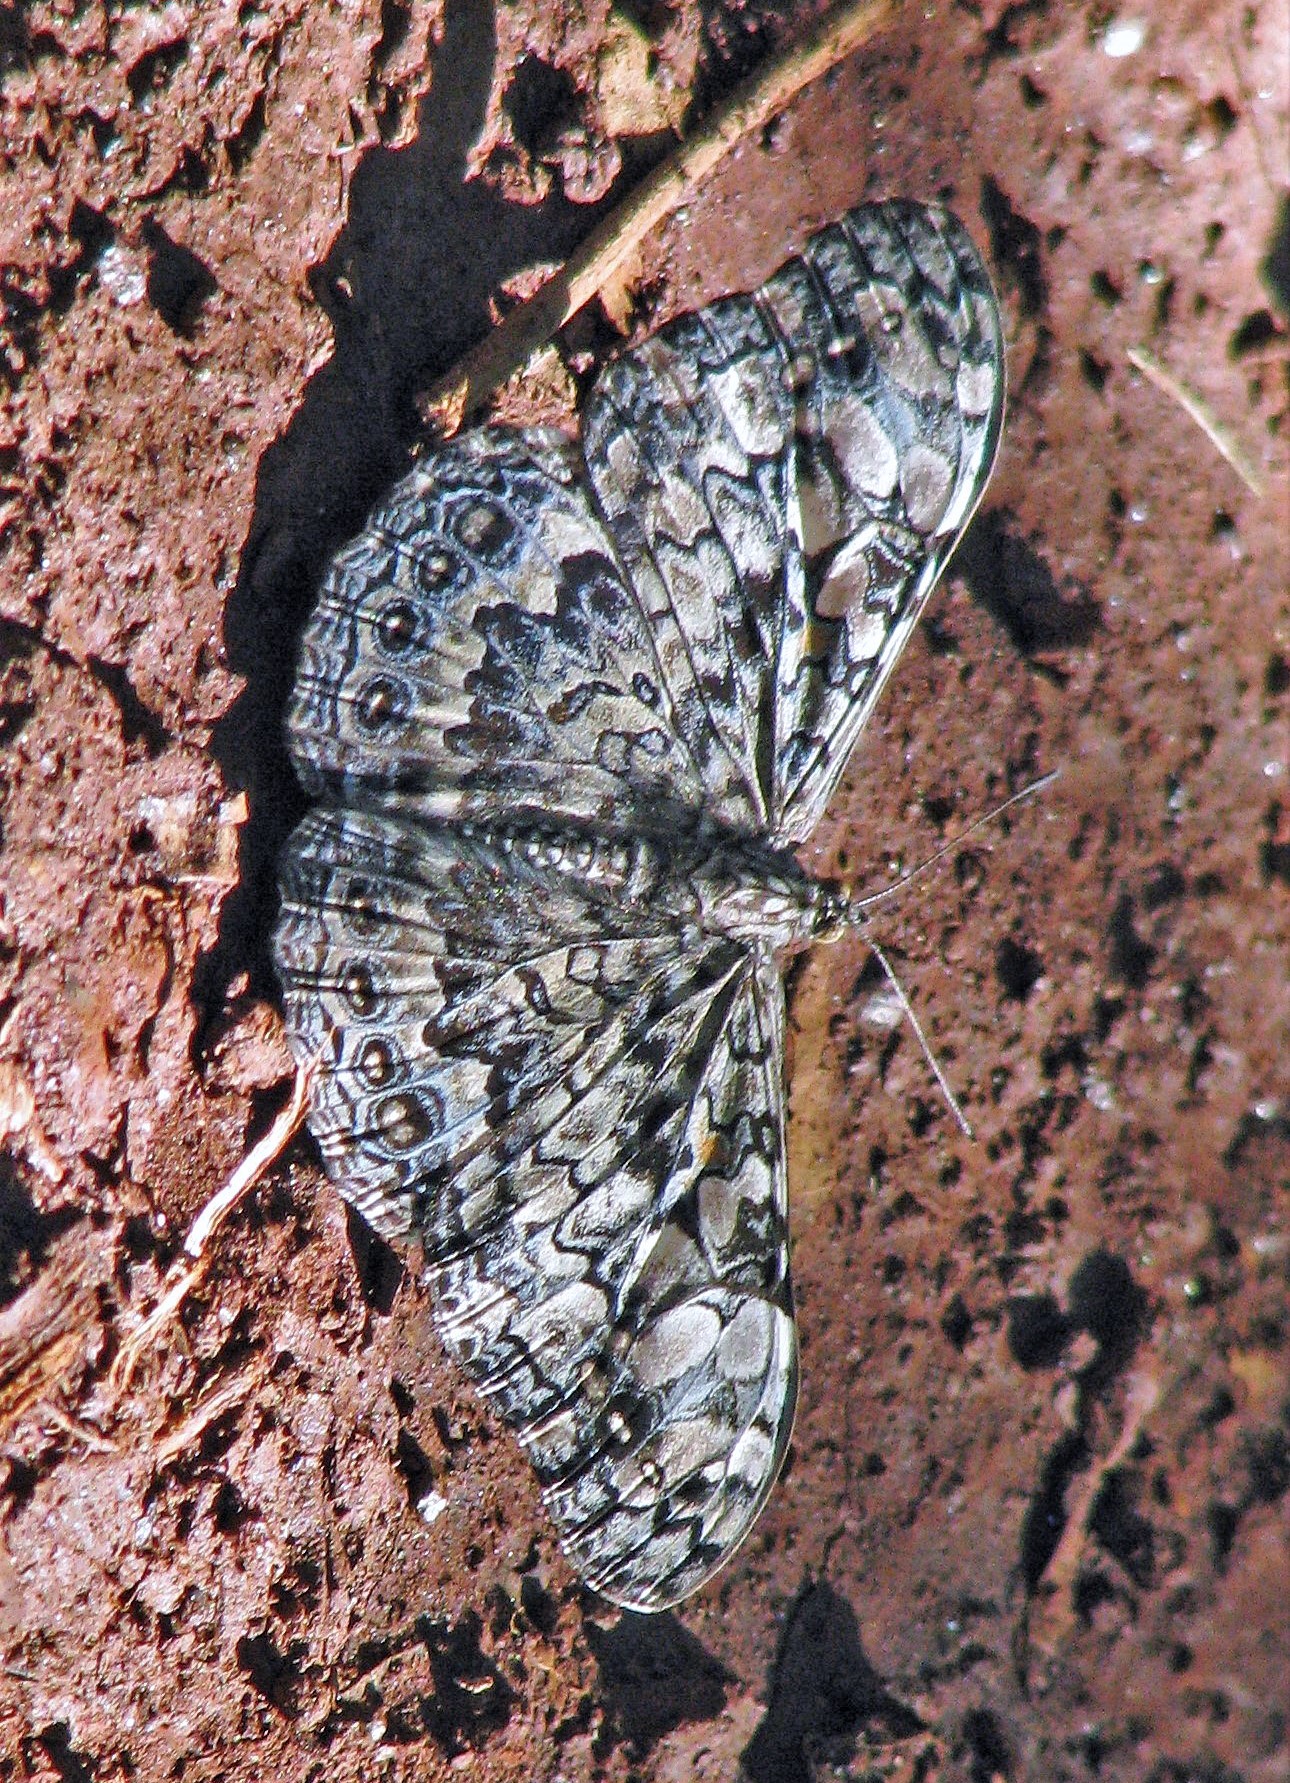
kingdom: Animalia
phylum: Arthropoda
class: Insecta
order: Lepidoptera
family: Nymphalidae
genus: Hamadryas
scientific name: Hamadryas epinome
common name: Epinome cracker
